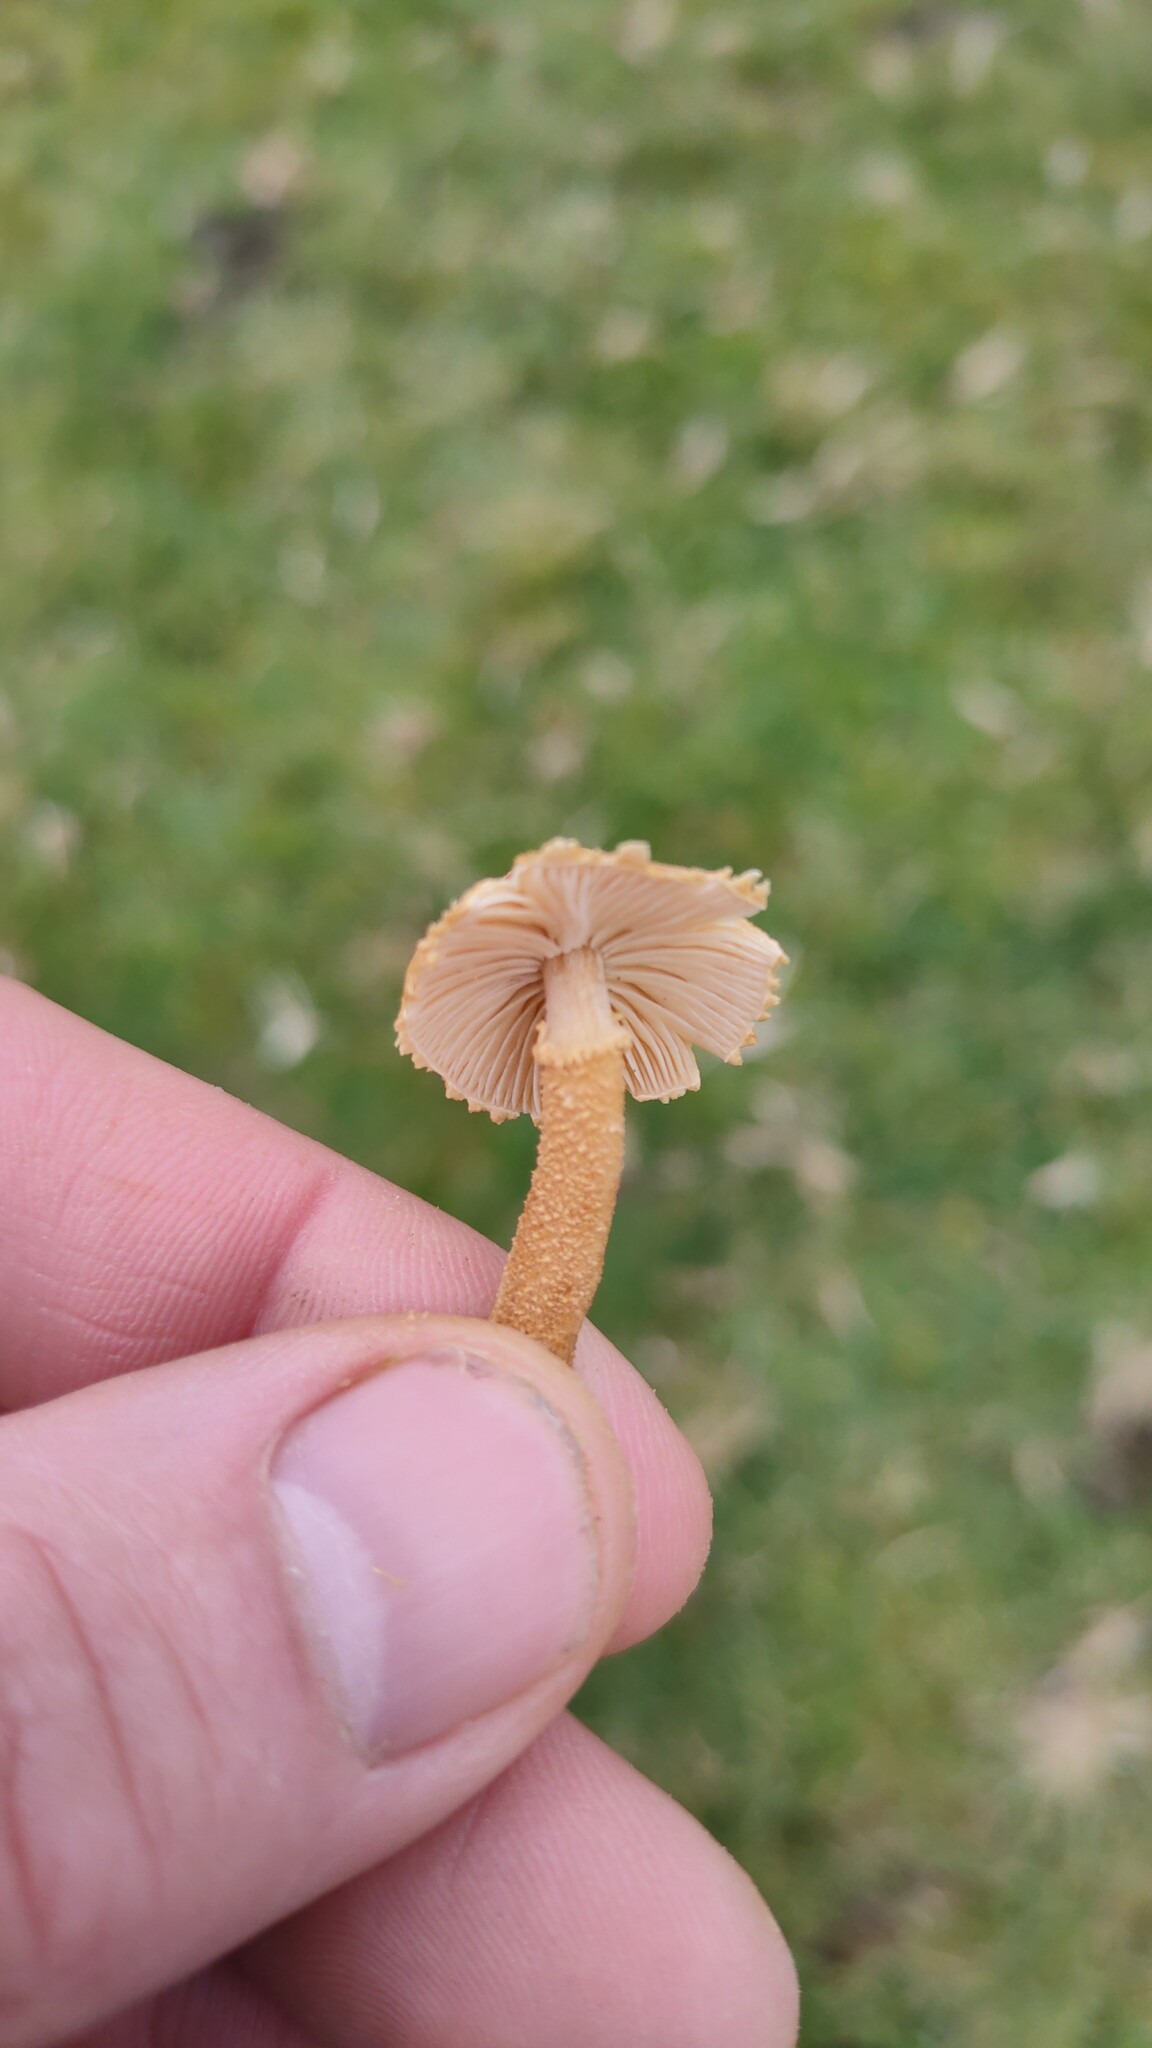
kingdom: Fungi
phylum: Basidiomycota
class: Agaricomycetes
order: Agaricales
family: Tricholomataceae
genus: Cystoderma
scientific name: Cystoderma amianthinum
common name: Earthy powdercap
